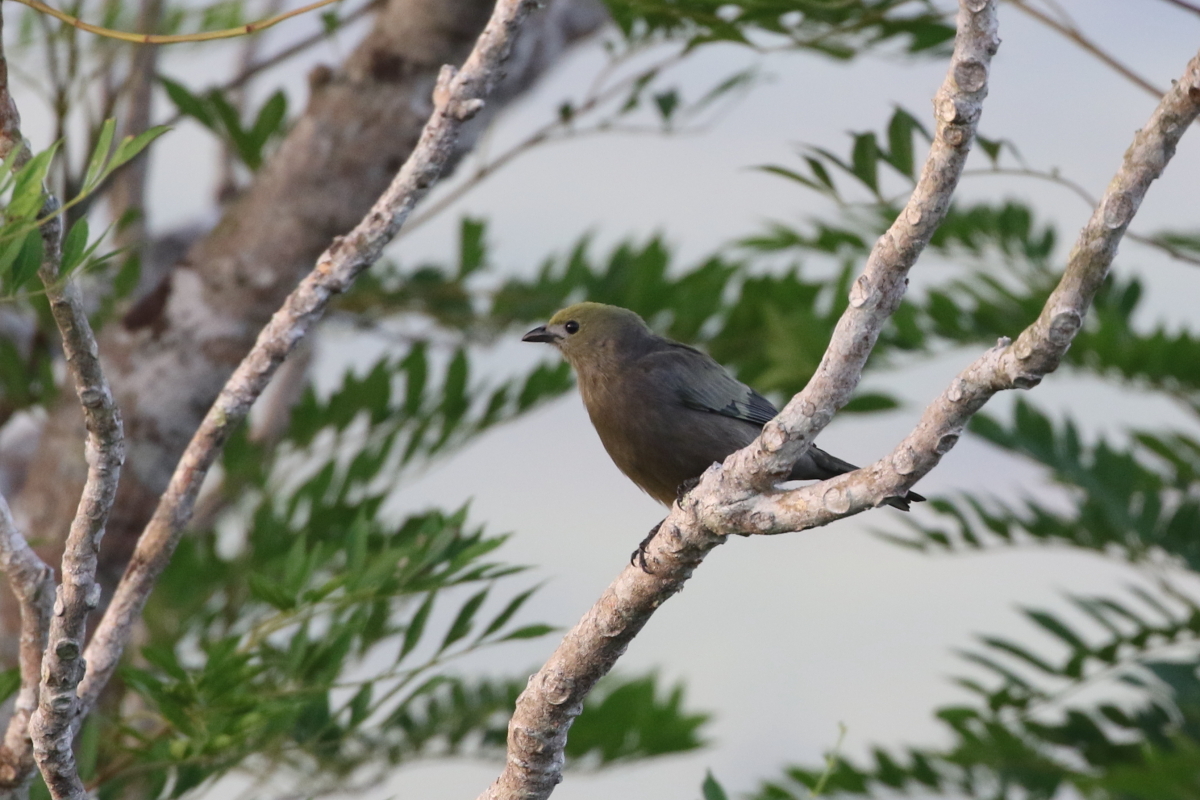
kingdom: Animalia
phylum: Chordata
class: Aves
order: Passeriformes
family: Thraupidae
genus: Thraupis
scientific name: Thraupis palmarum
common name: Palm tanager
